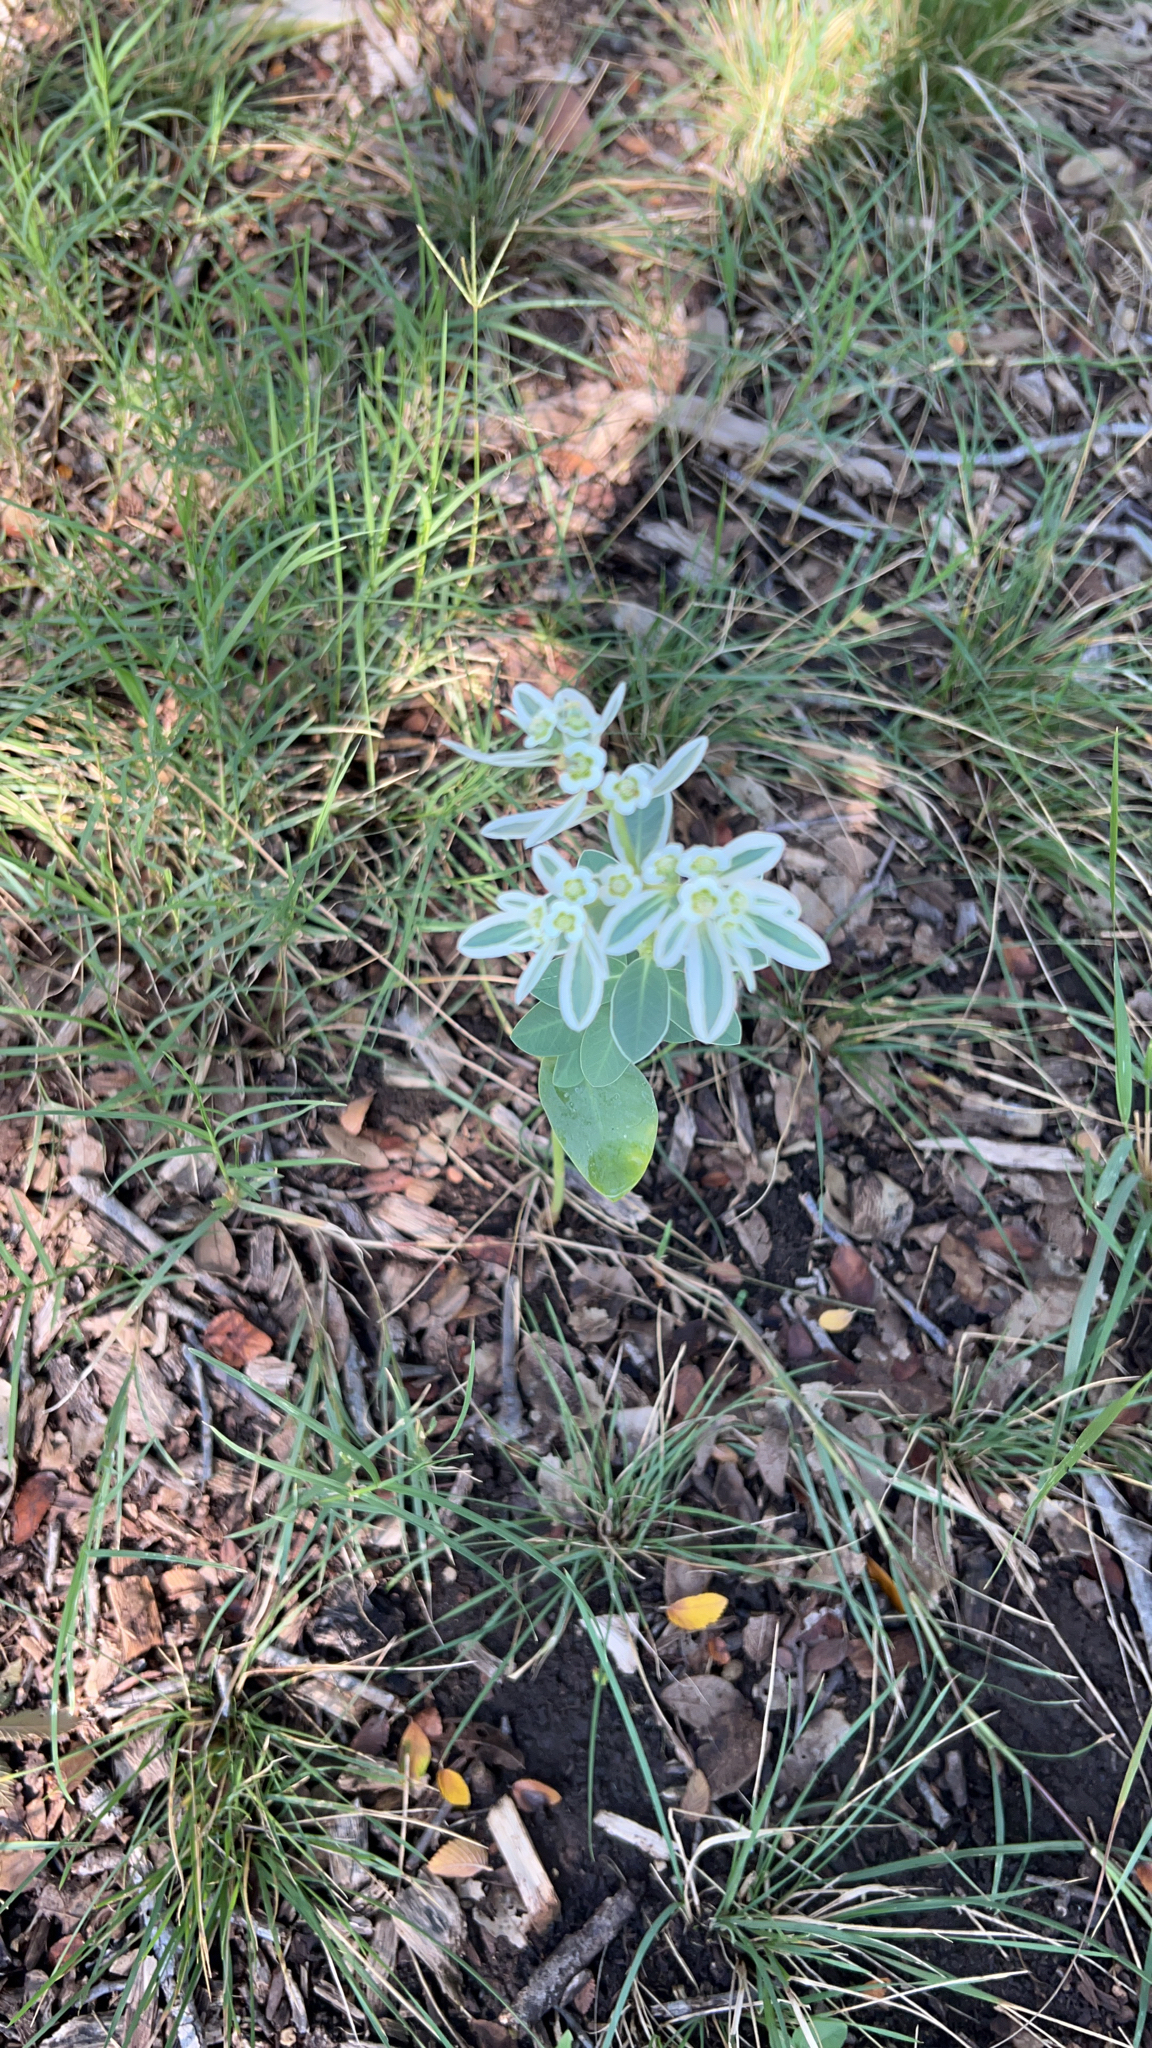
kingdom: Plantae
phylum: Tracheophyta
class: Magnoliopsida
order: Malpighiales
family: Euphorbiaceae
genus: Euphorbia
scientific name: Euphorbia marginata
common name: Ghostweed
